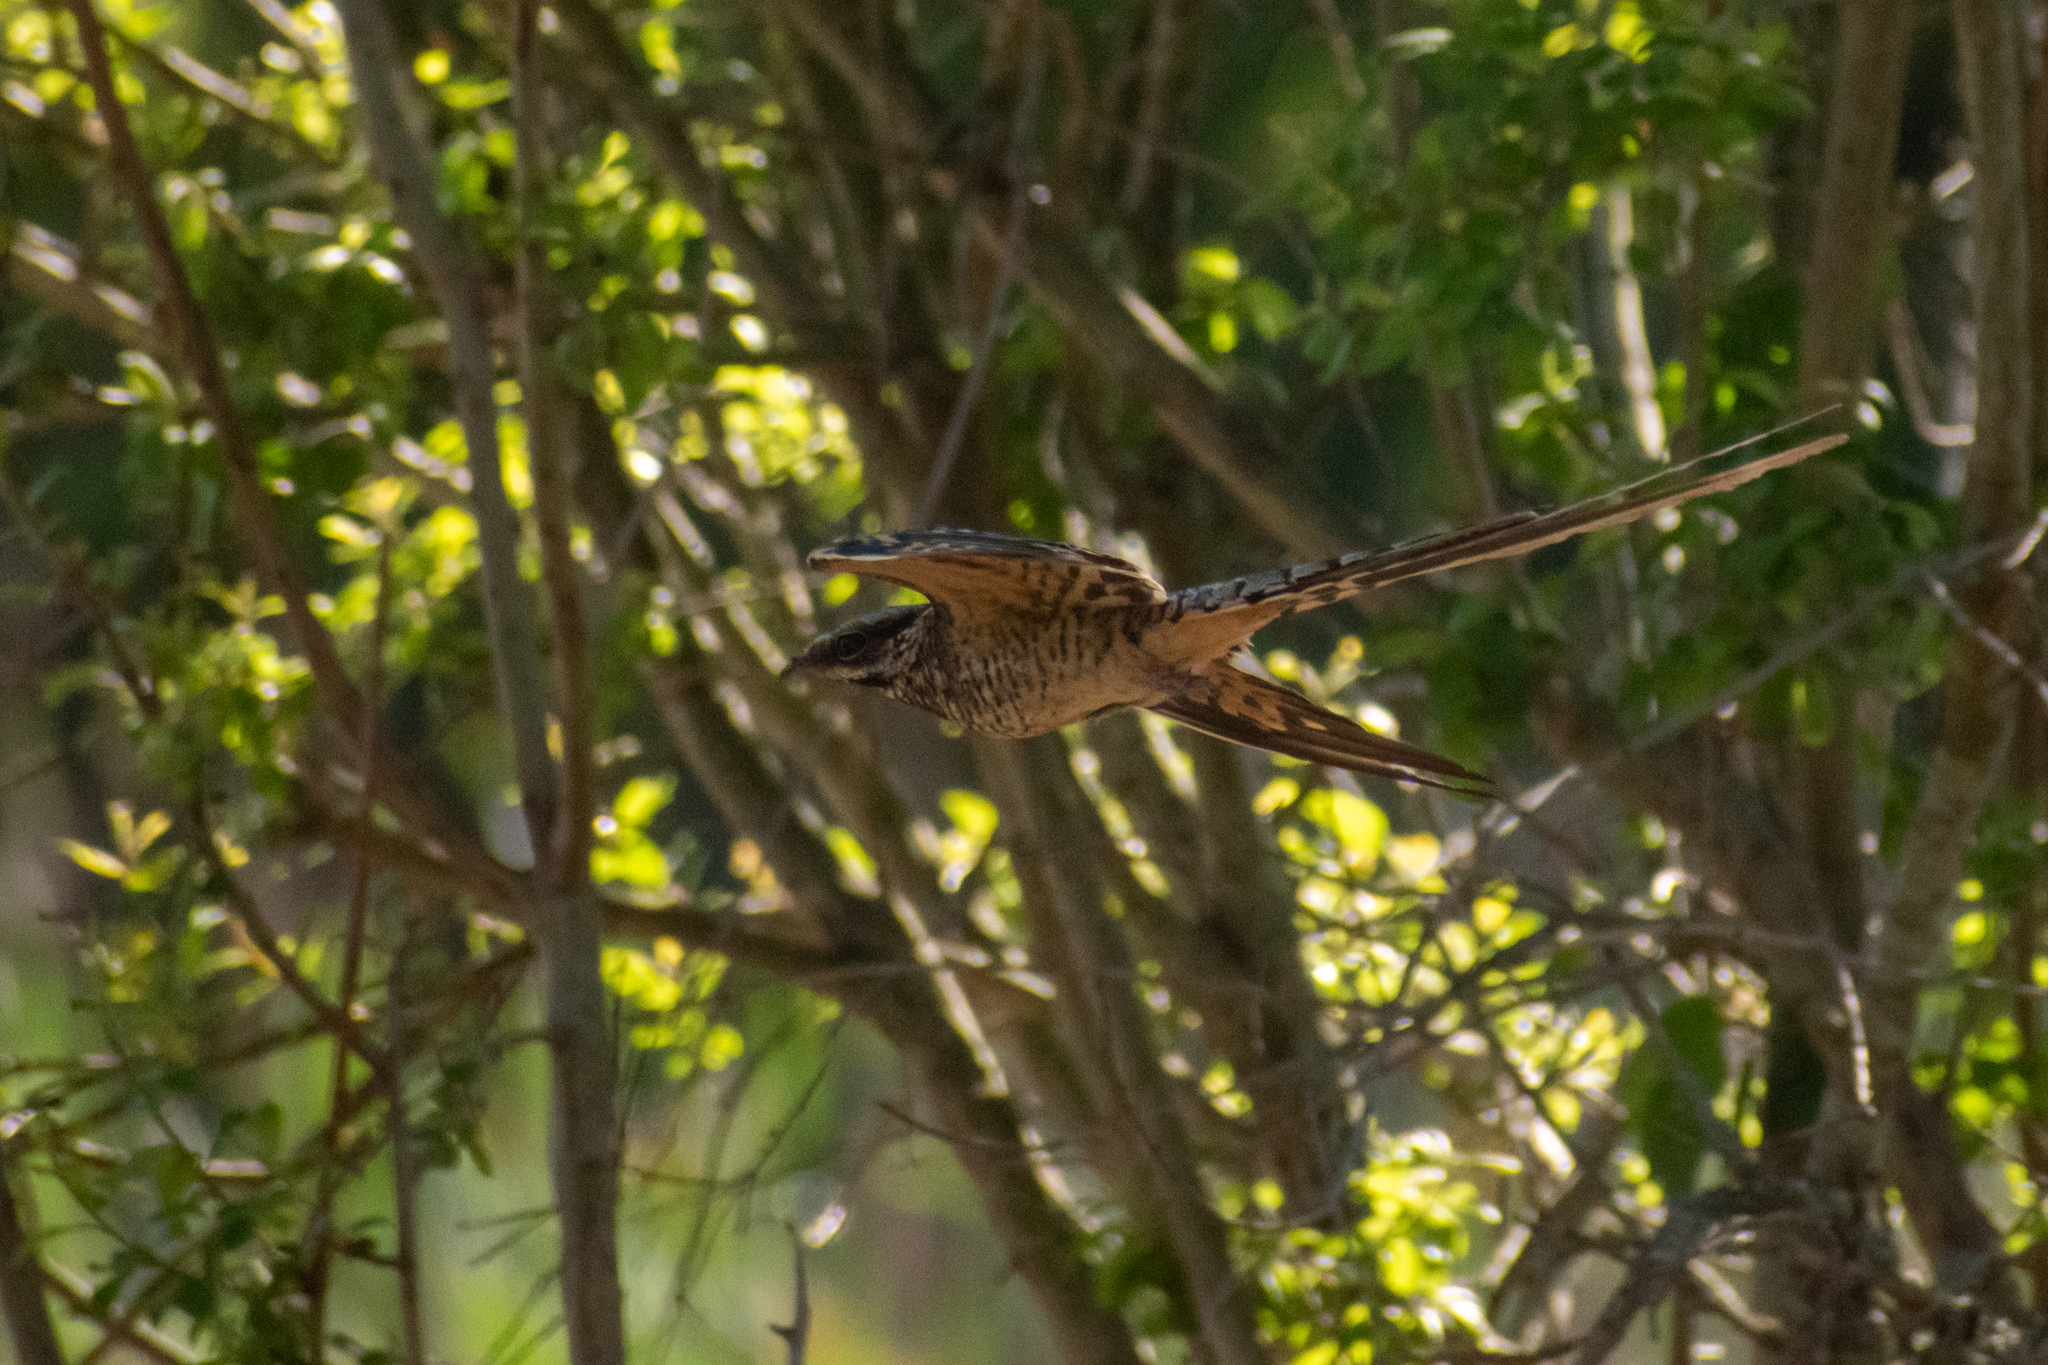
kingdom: Animalia
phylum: Chordata
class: Aves
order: Caprimulgiformes
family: Caprimulgidae
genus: Hydropsalis
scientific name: Hydropsalis torquata
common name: Scissor-tailed nightjar
